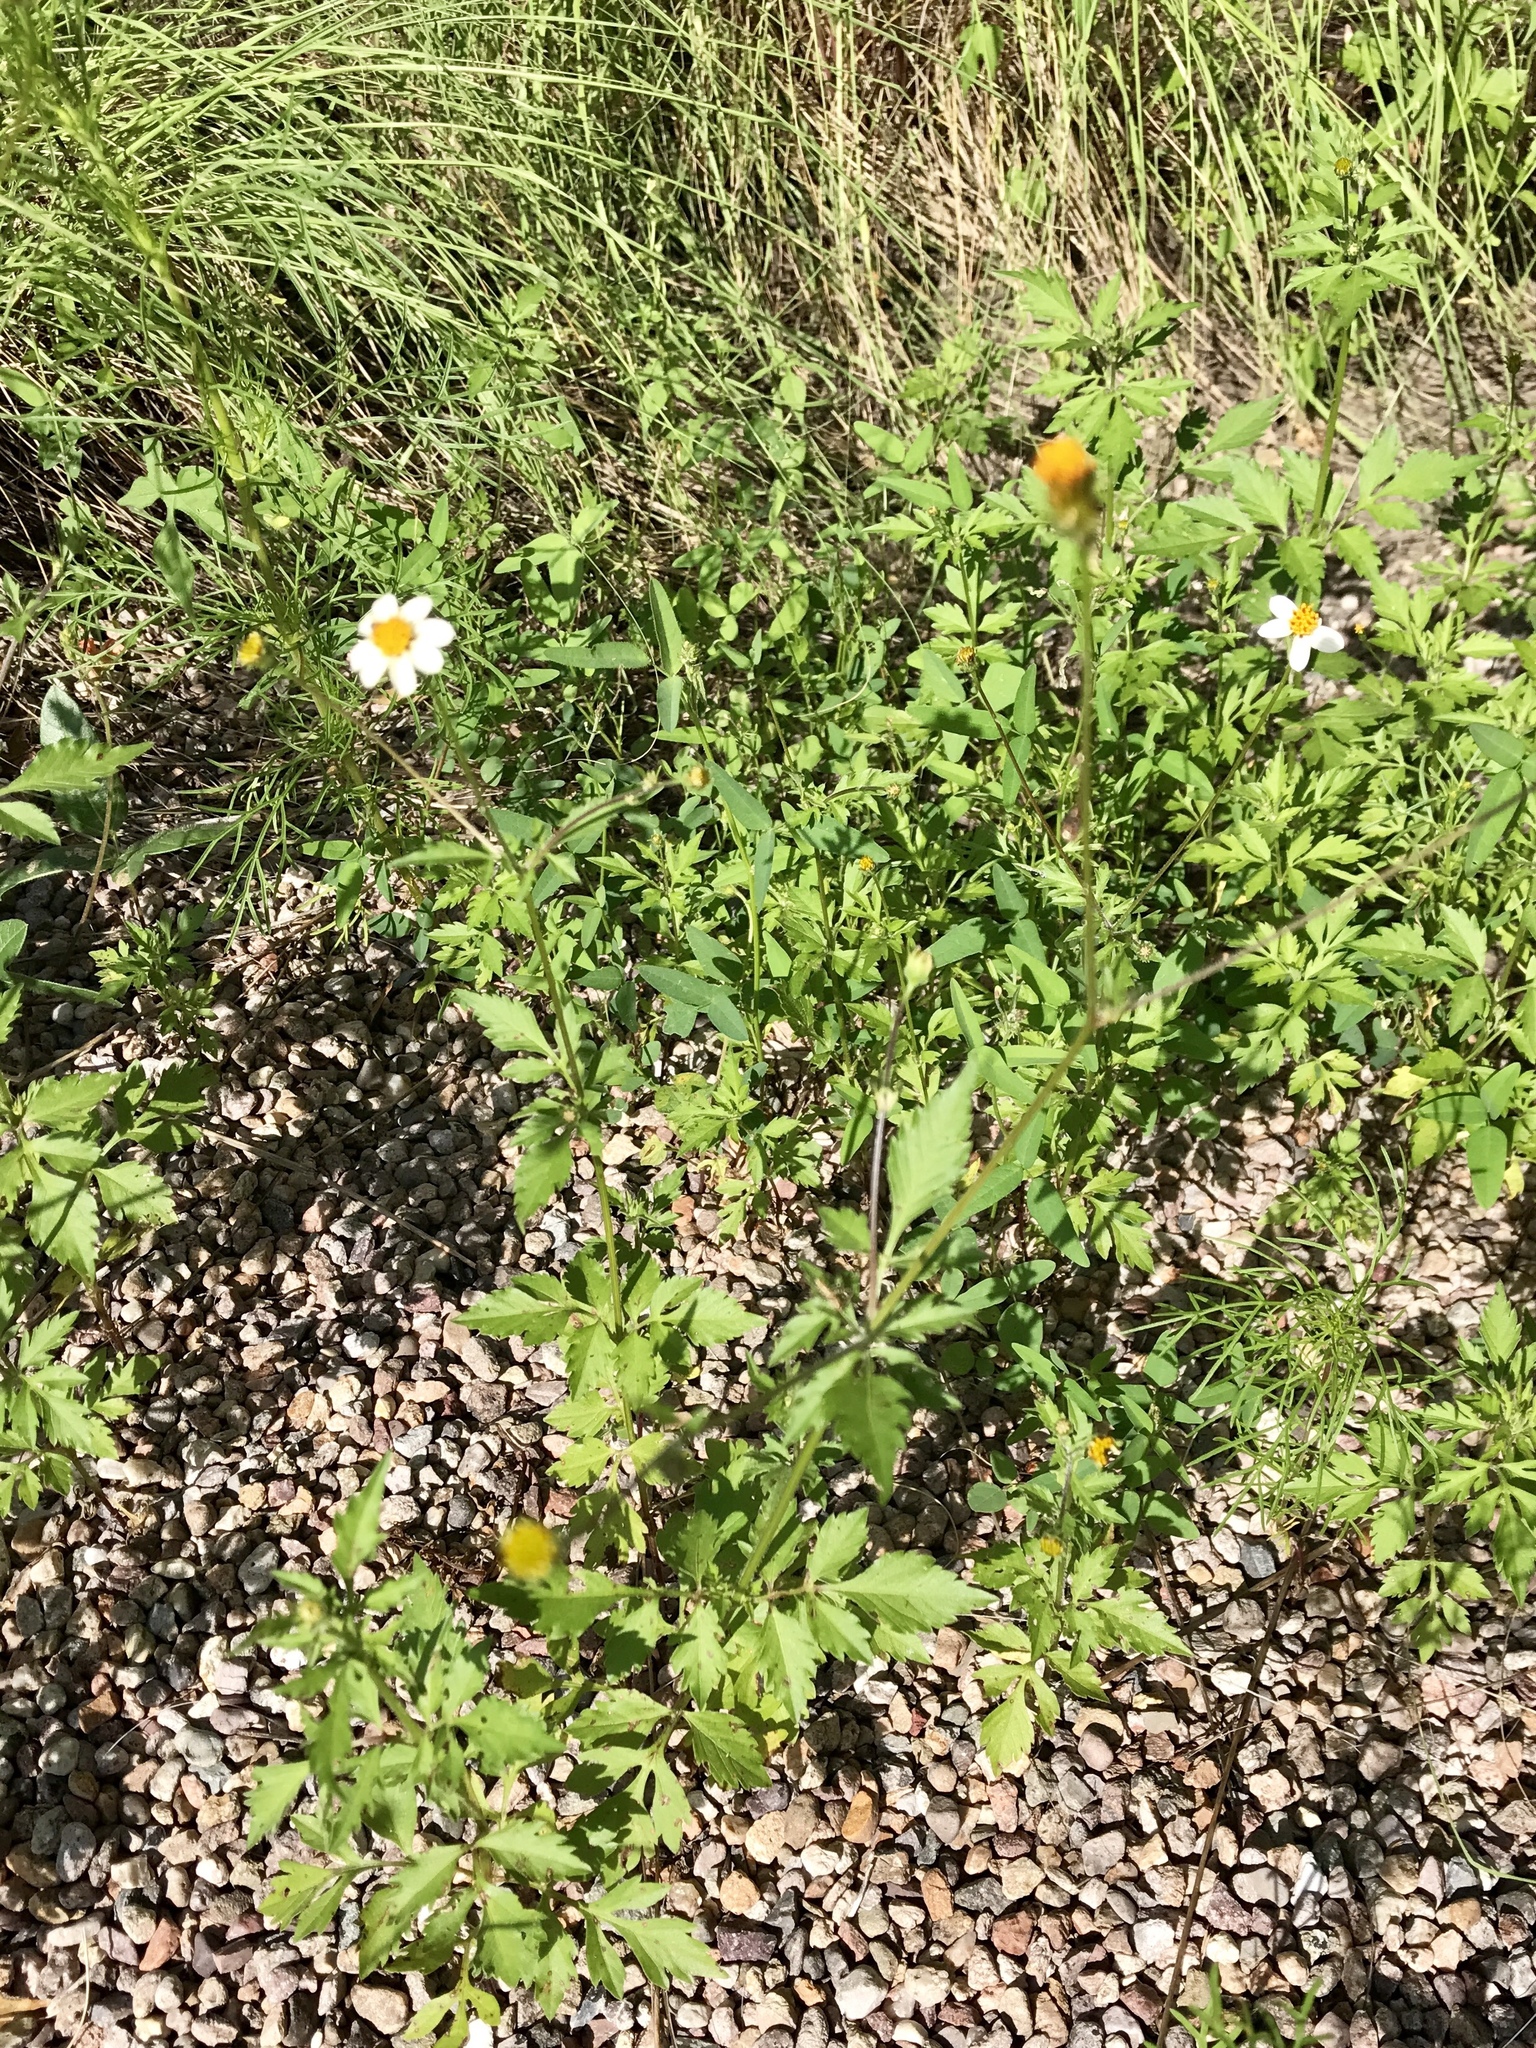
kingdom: Plantae
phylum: Tracheophyta
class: Magnoliopsida
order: Asterales
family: Asteraceae
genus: Bidens
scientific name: Bidens bigelovii
